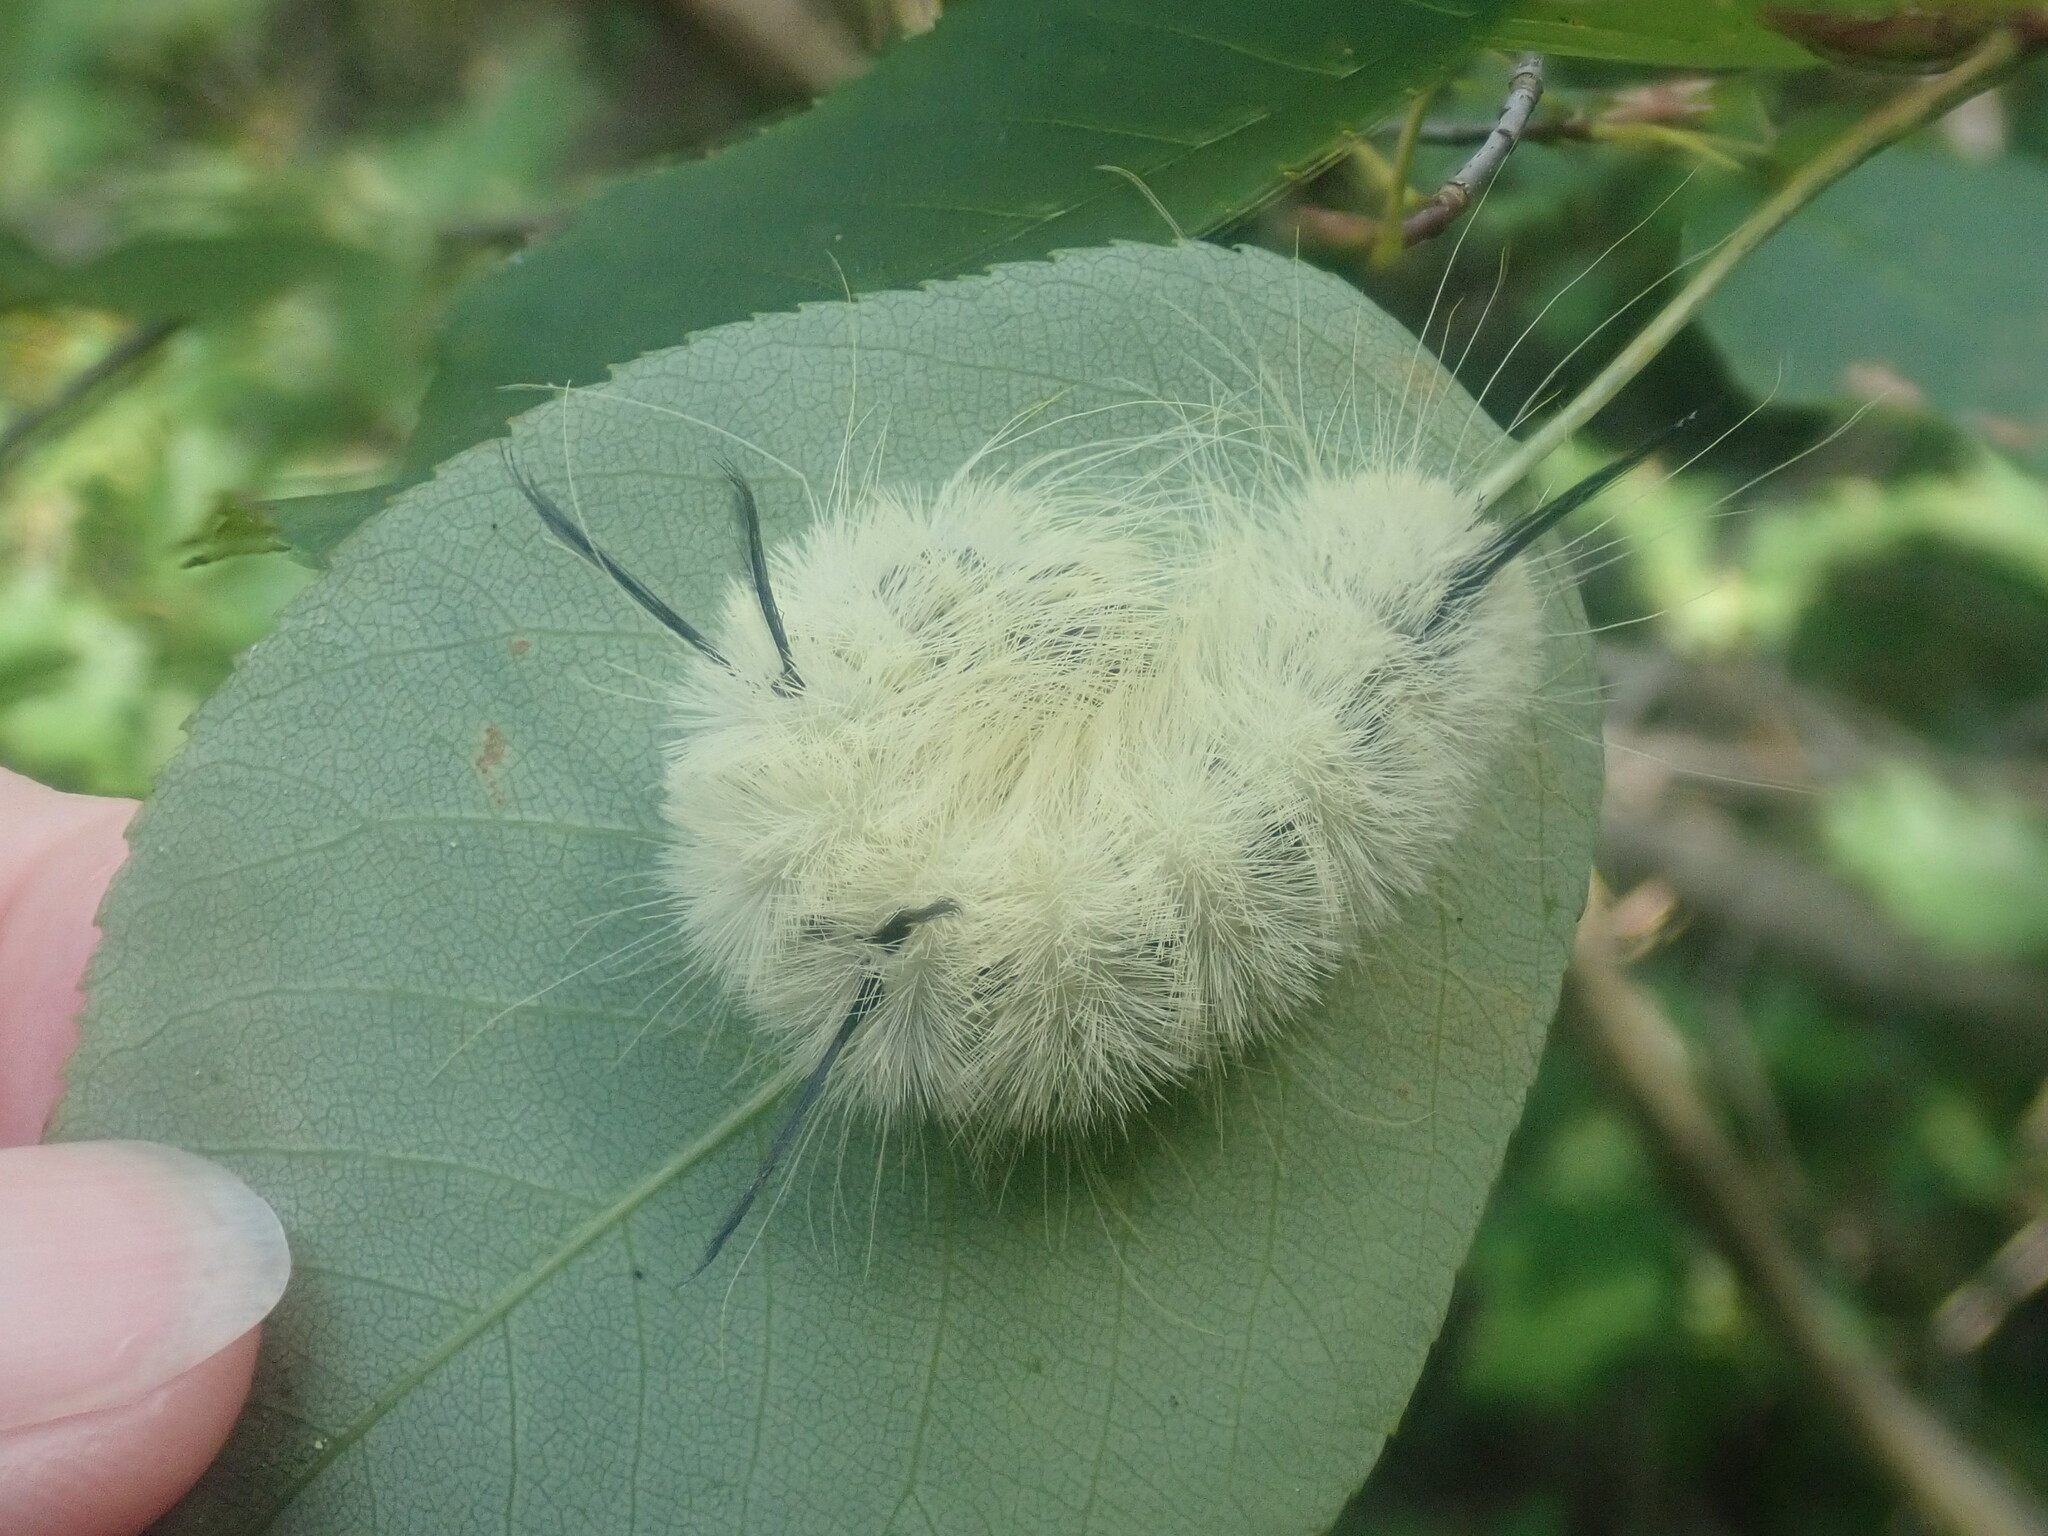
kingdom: Animalia
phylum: Arthropoda
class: Insecta
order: Lepidoptera
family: Noctuidae
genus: Acronicta
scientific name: Acronicta americana
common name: American dagger
